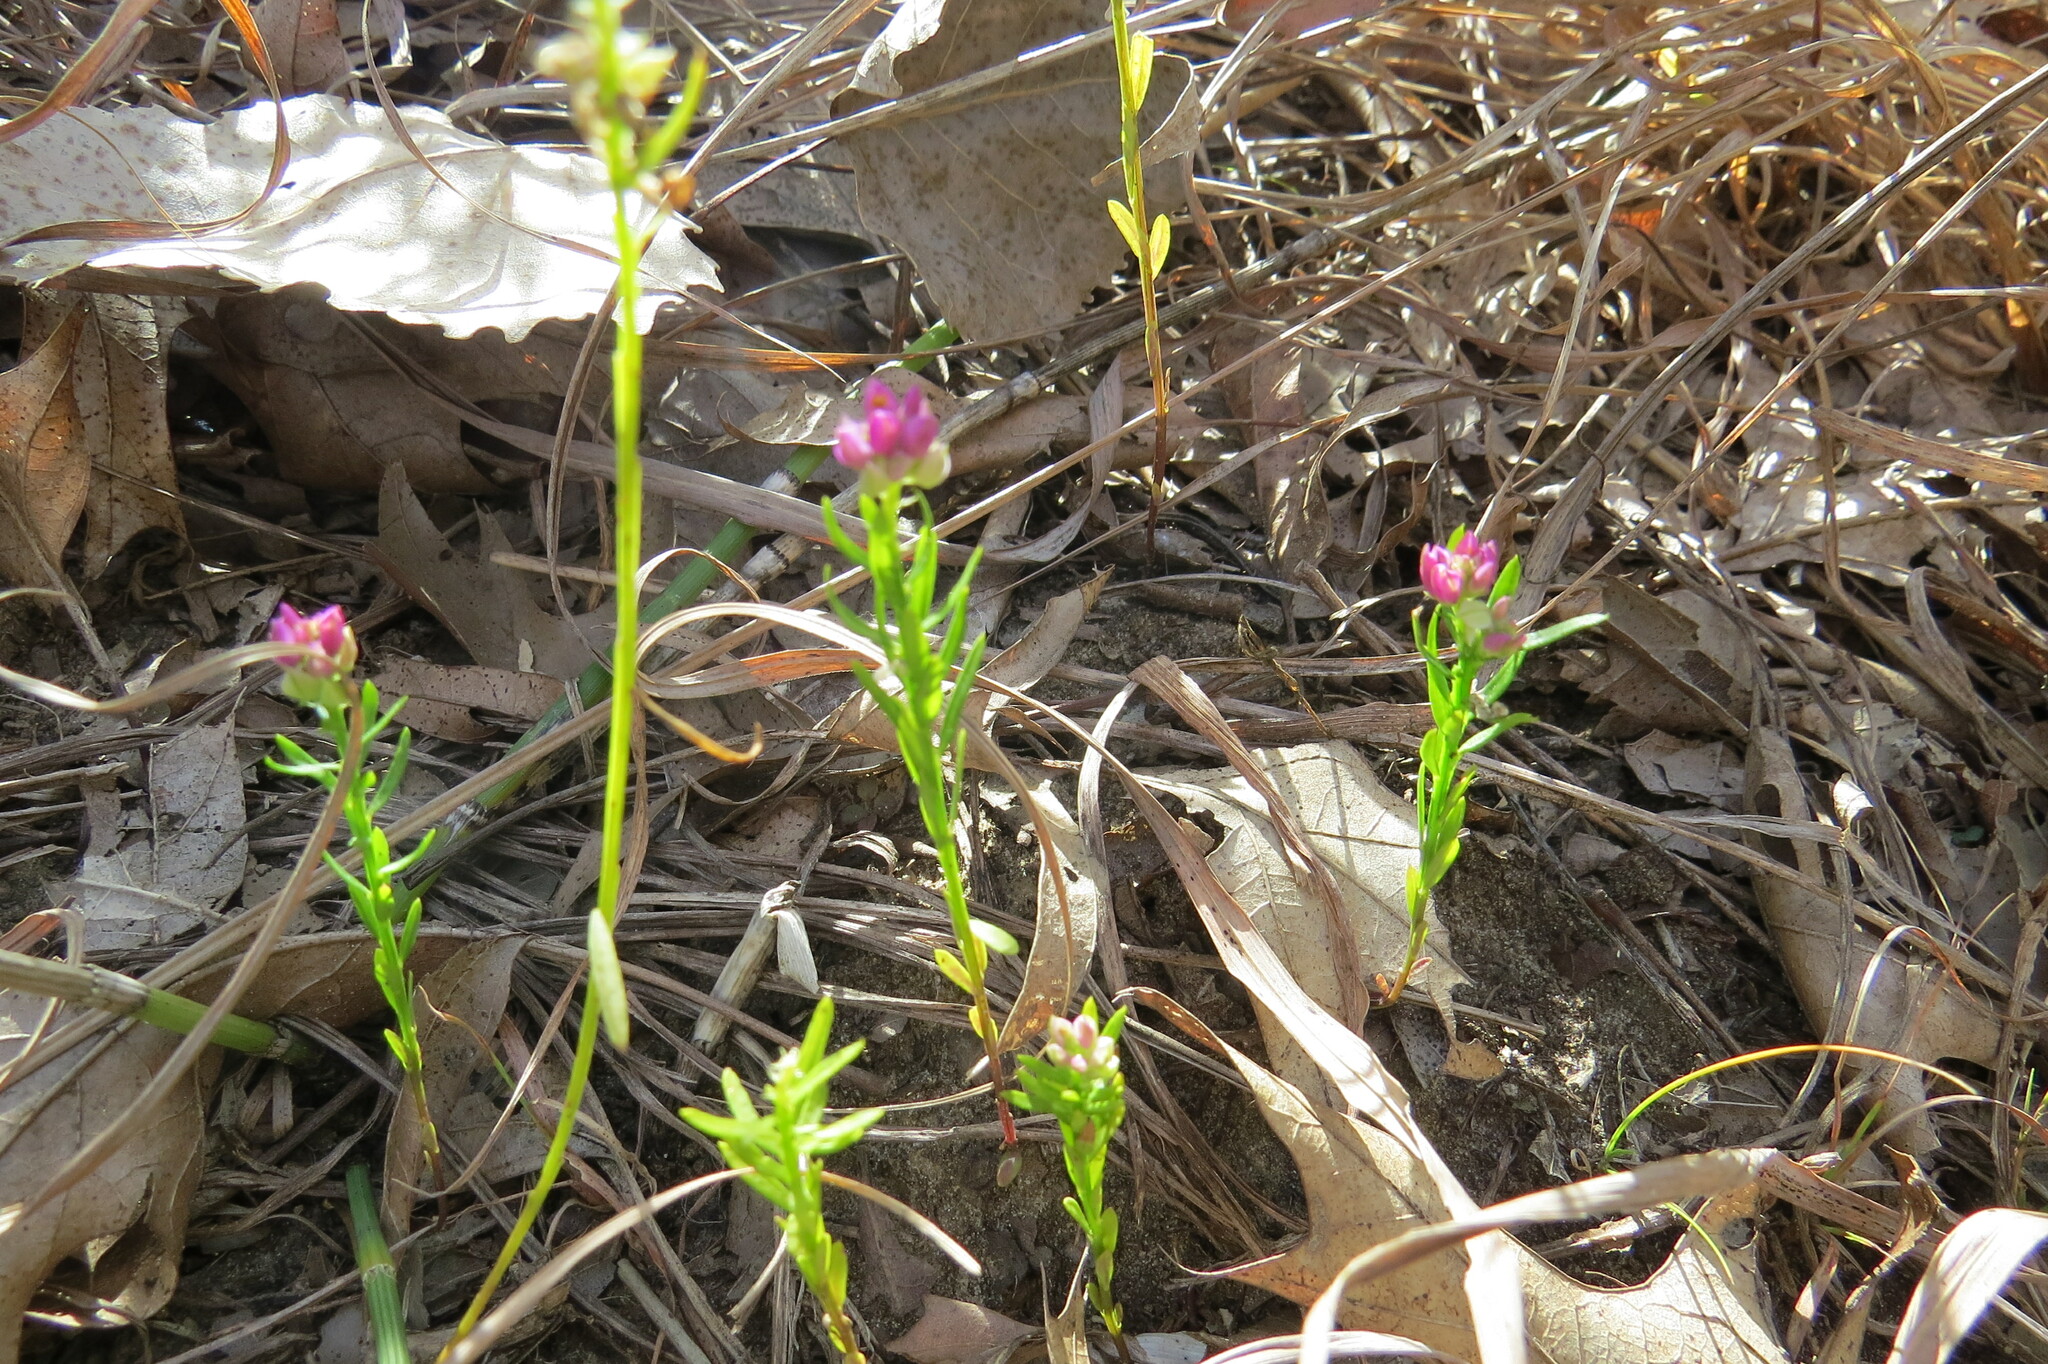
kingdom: Plantae
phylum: Tracheophyta
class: Magnoliopsida
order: Fabales
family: Polygalaceae
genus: Polygala
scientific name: Polygala sanguinea
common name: Blood milkwort
